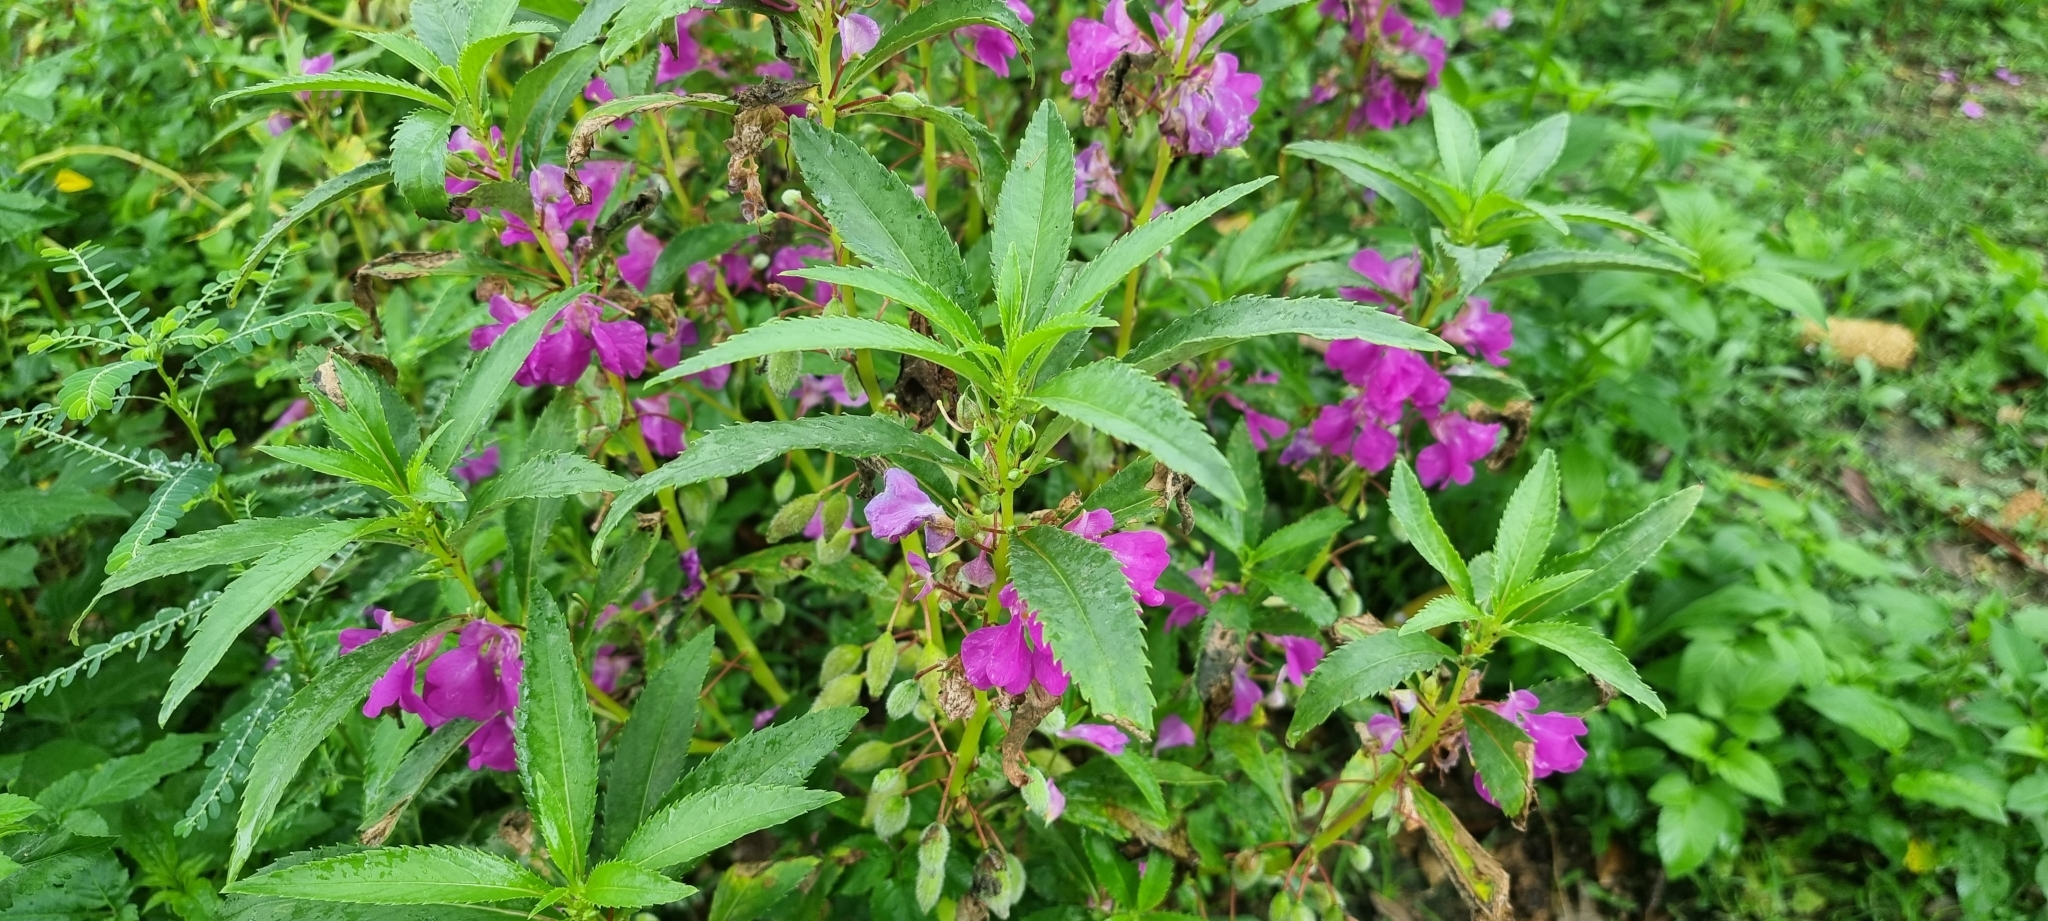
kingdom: Plantae
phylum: Tracheophyta
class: Magnoliopsida
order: Ericales
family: Balsaminaceae
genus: Impatiens
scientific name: Impatiens balsamina
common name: Balsam
